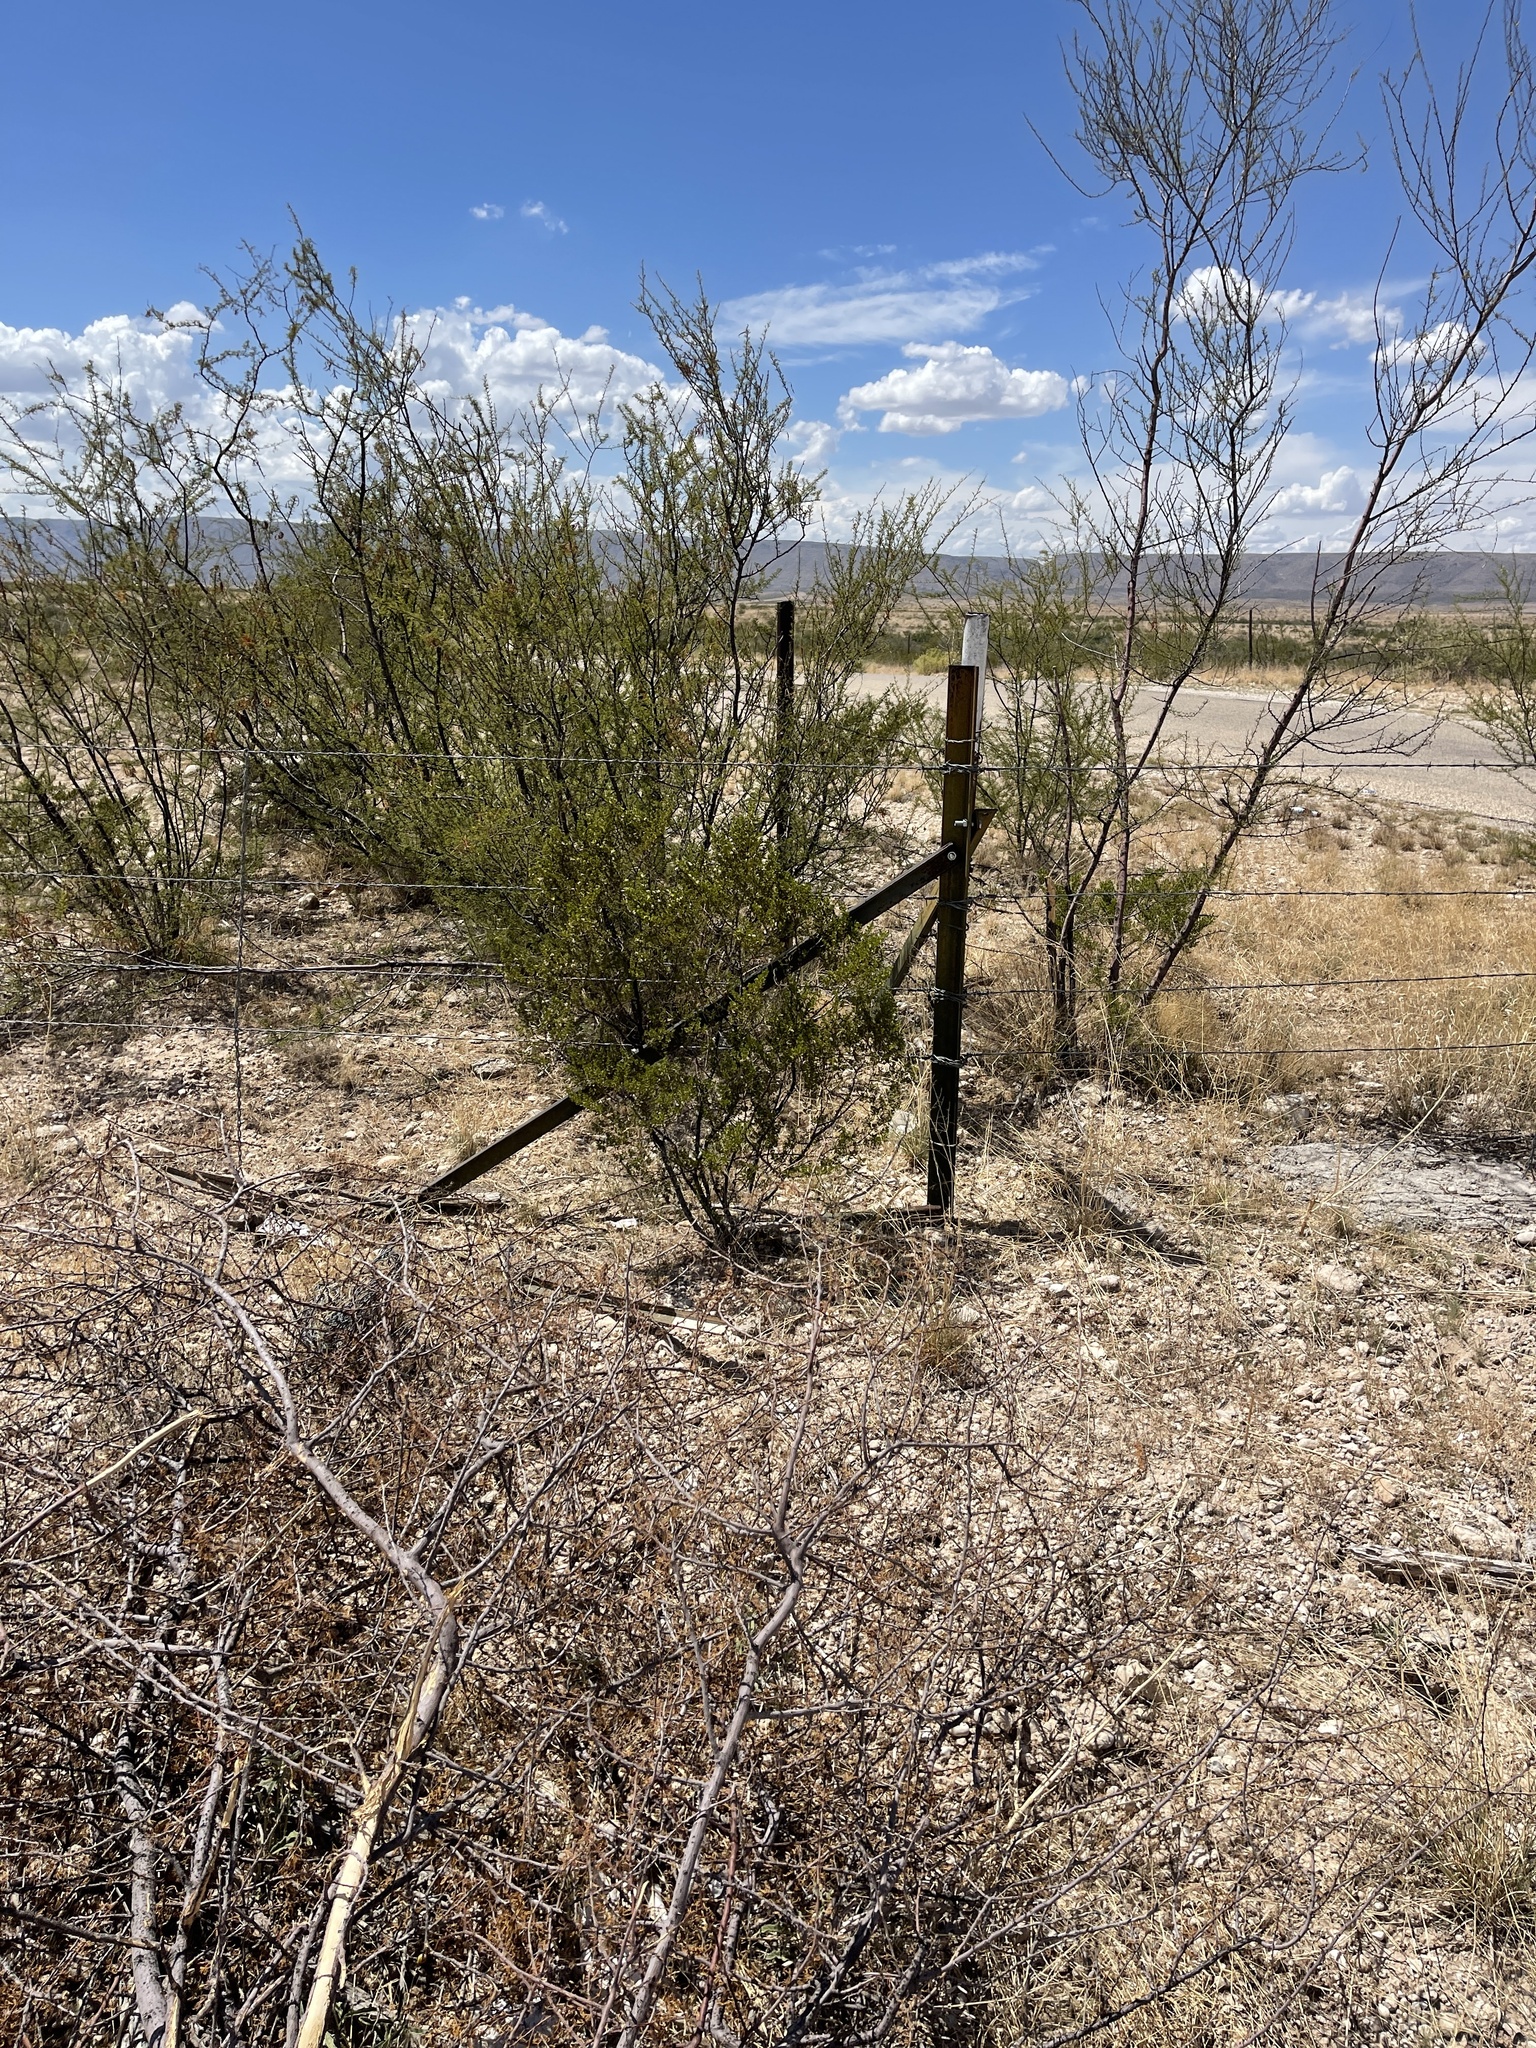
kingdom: Plantae
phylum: Tracheophyta
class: Magnoliopsida
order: Zygophyllales
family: Zygophyllaceae
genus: Larrea
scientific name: Larrea tridentata
